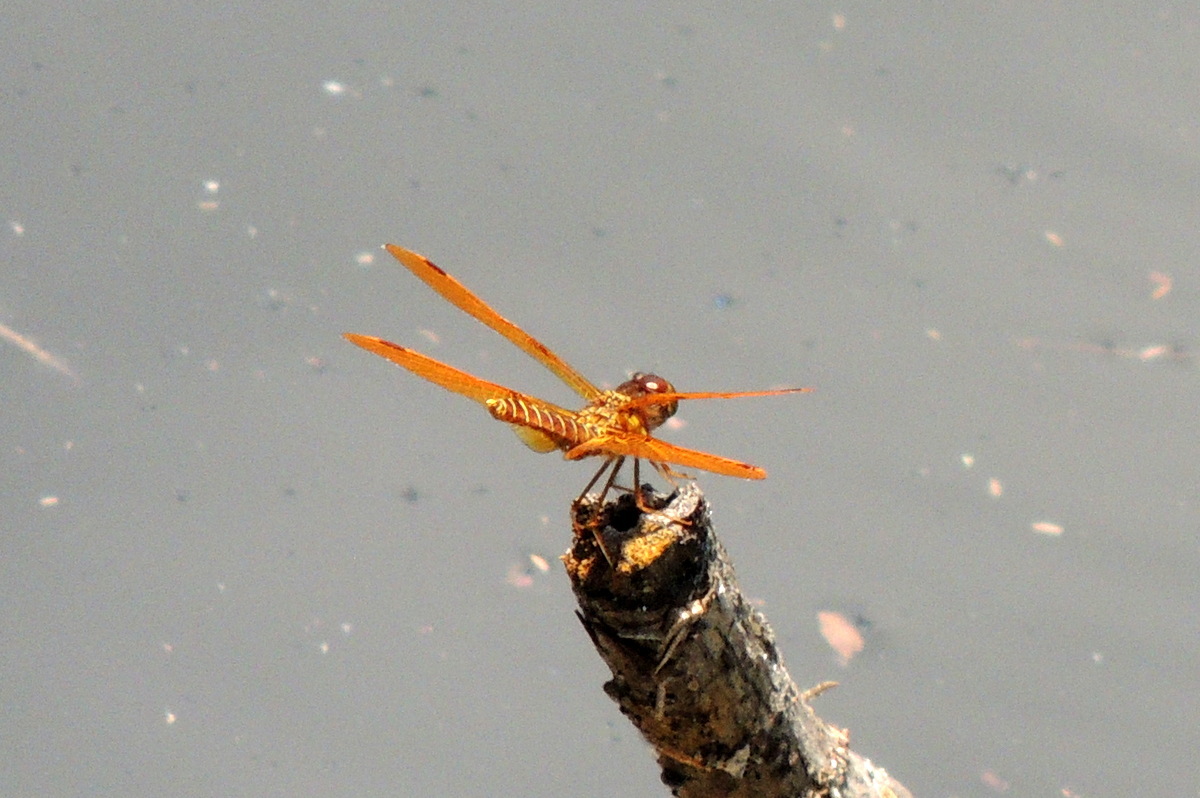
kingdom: Animalia
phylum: Arthropoda
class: Insecta
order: Odonata
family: Libellulidae
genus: Perithemis
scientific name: Perithemis tenera
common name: Eastern amberwing
